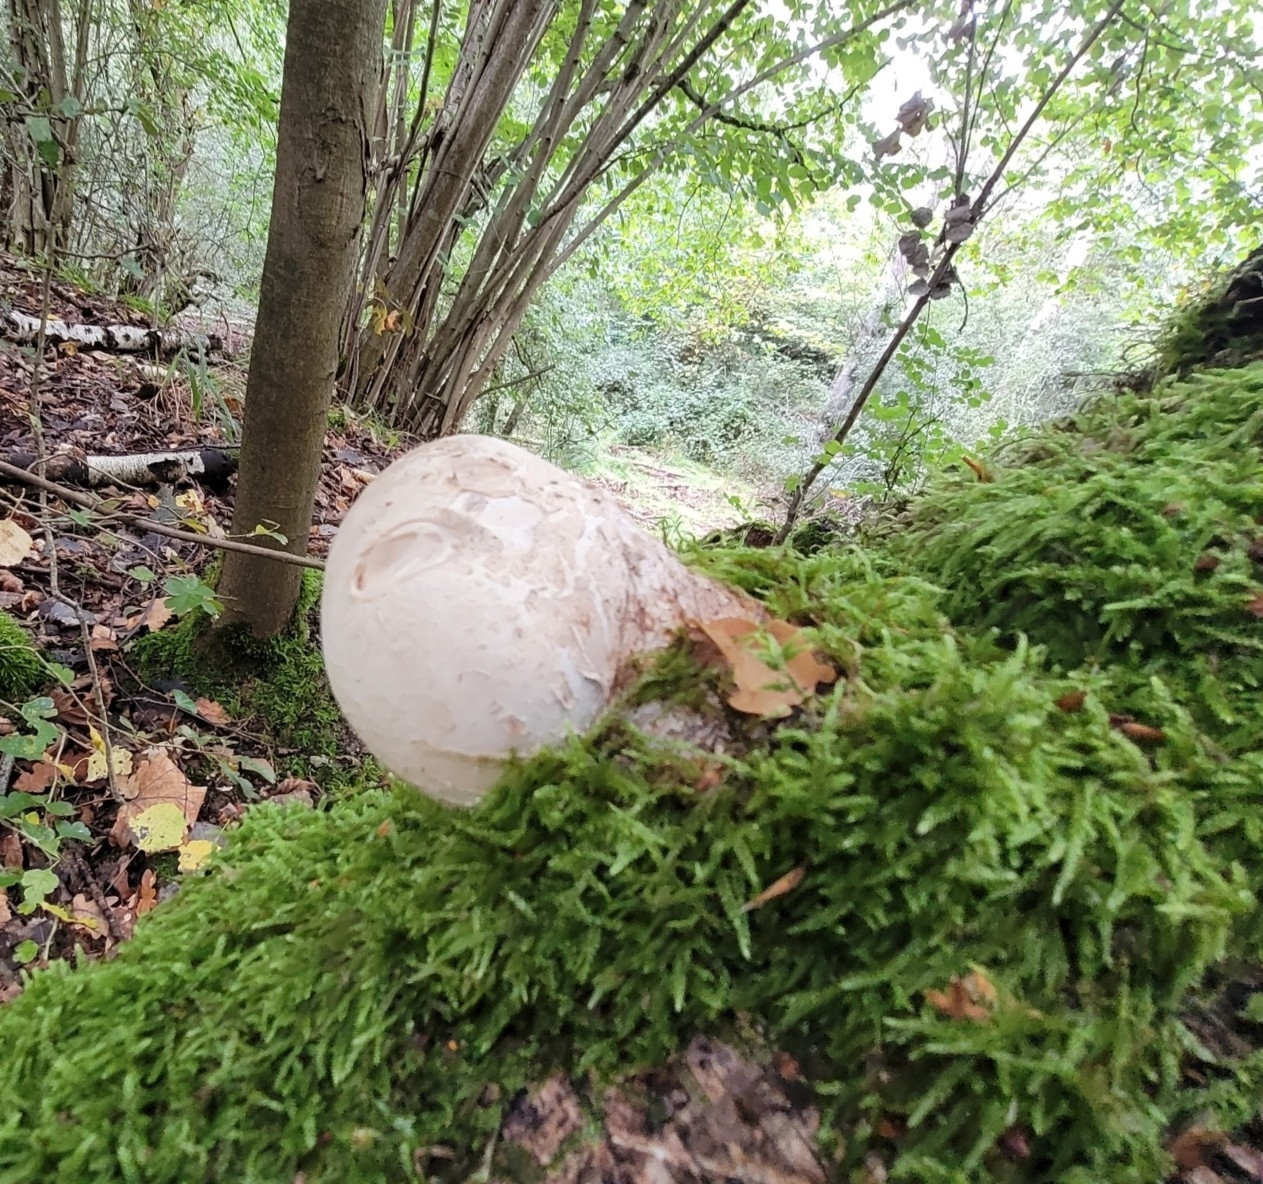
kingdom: Fungi
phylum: Basidiomycota
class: Agaricomycetes
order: Polyporales
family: Fomitopsidaceae
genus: Fomitopsis
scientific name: Fomitopsis betulina
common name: Birch polypore
